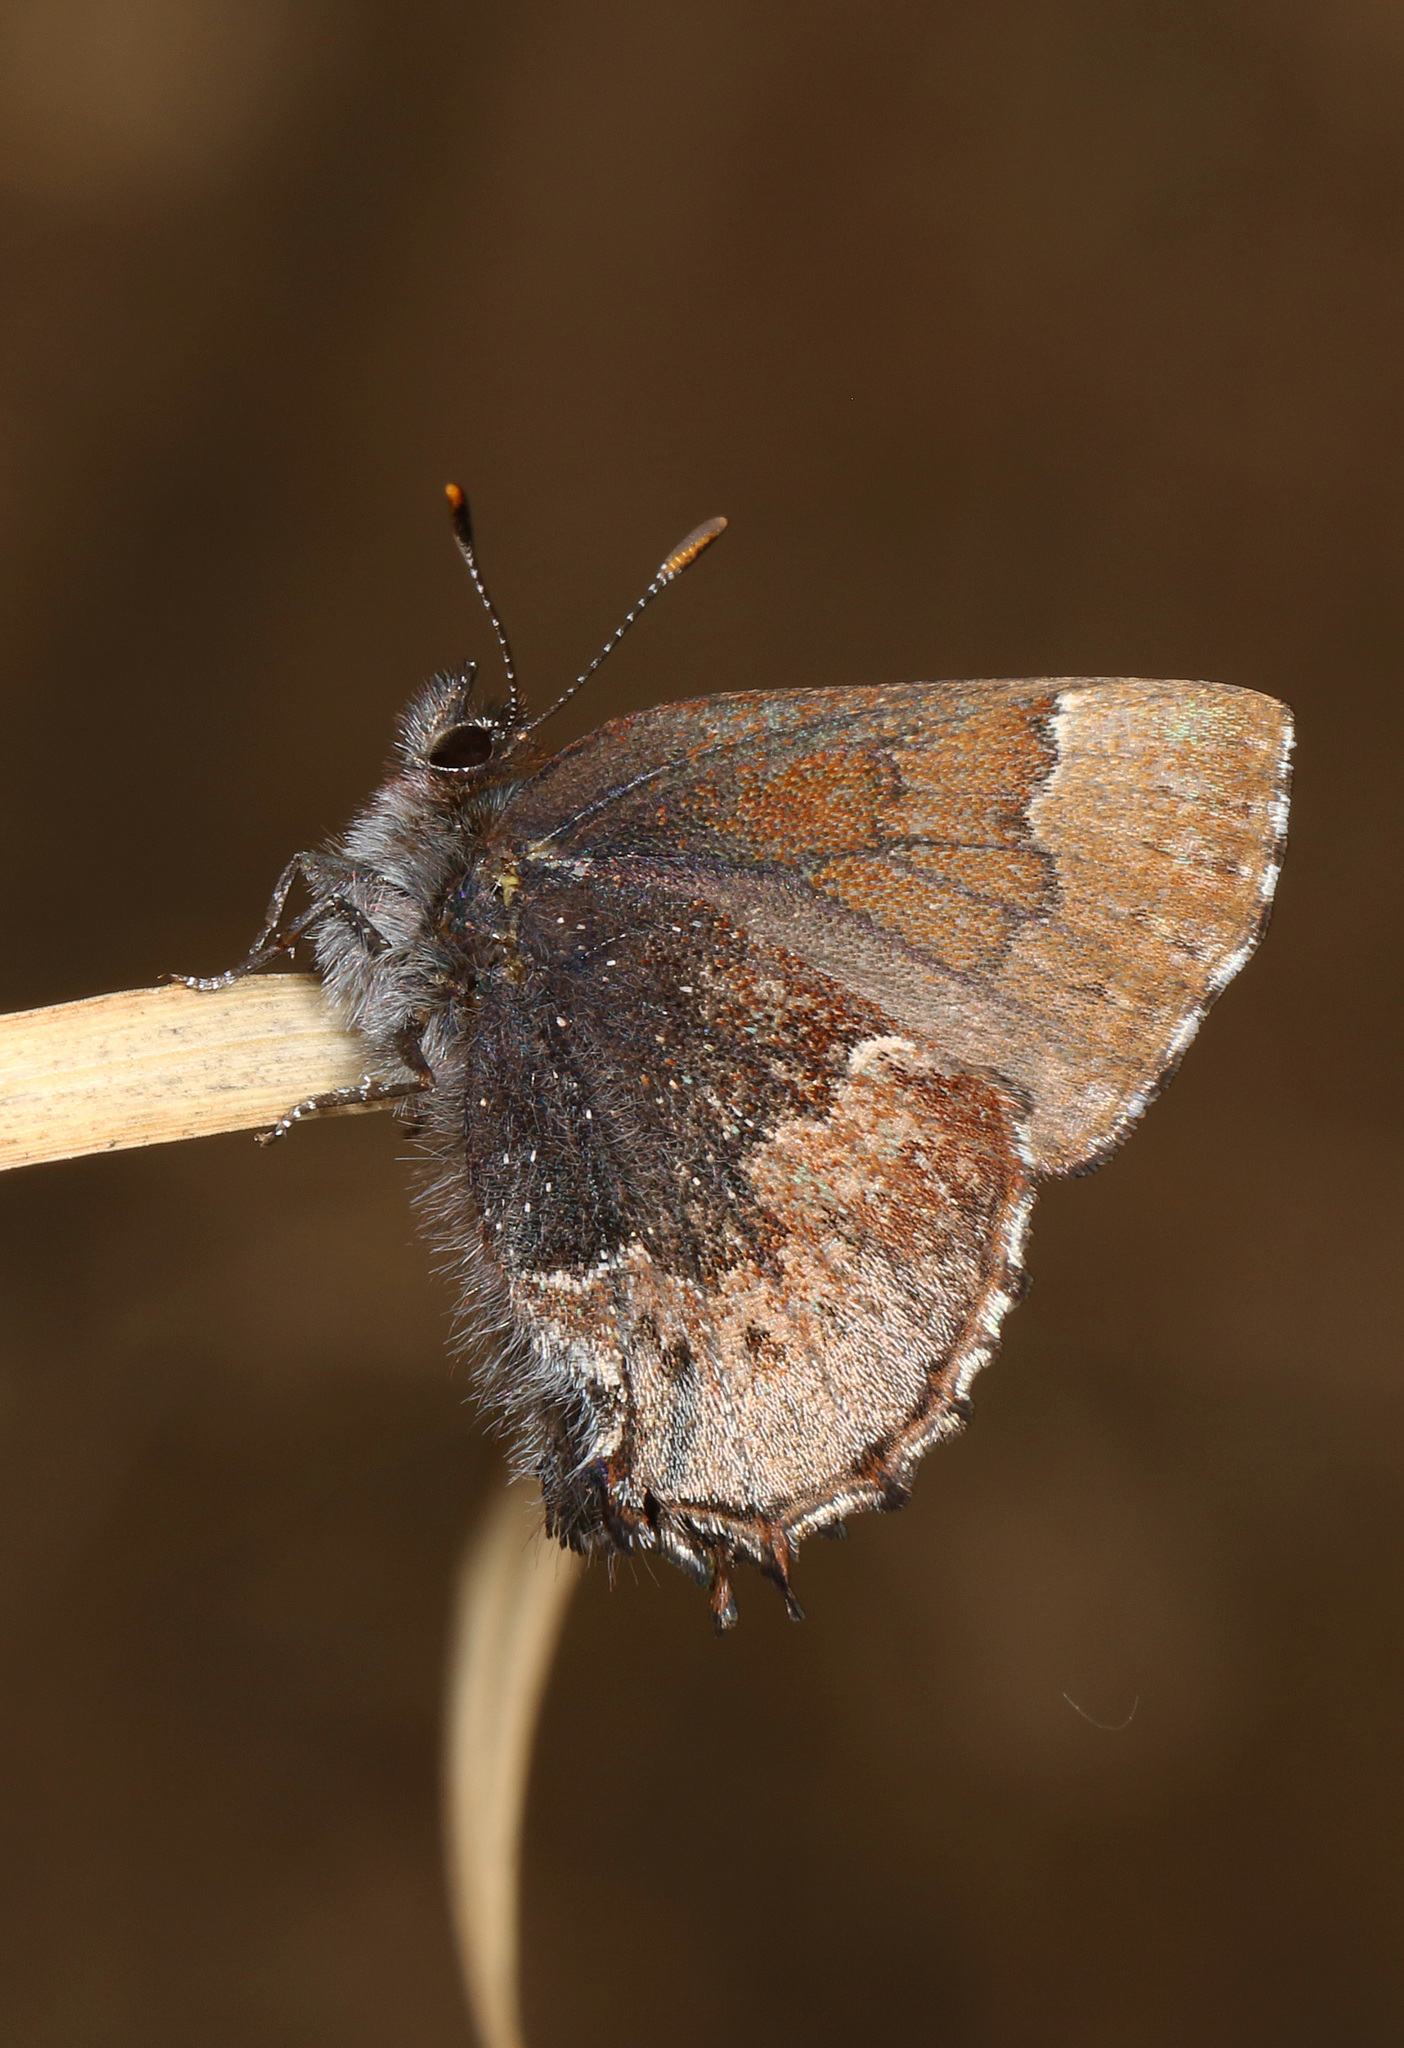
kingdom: Animalia
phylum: Arthropoda
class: Insecta
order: Lepidoptera
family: Lycaenidae
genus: Incisalia
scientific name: Incisalia henrici
